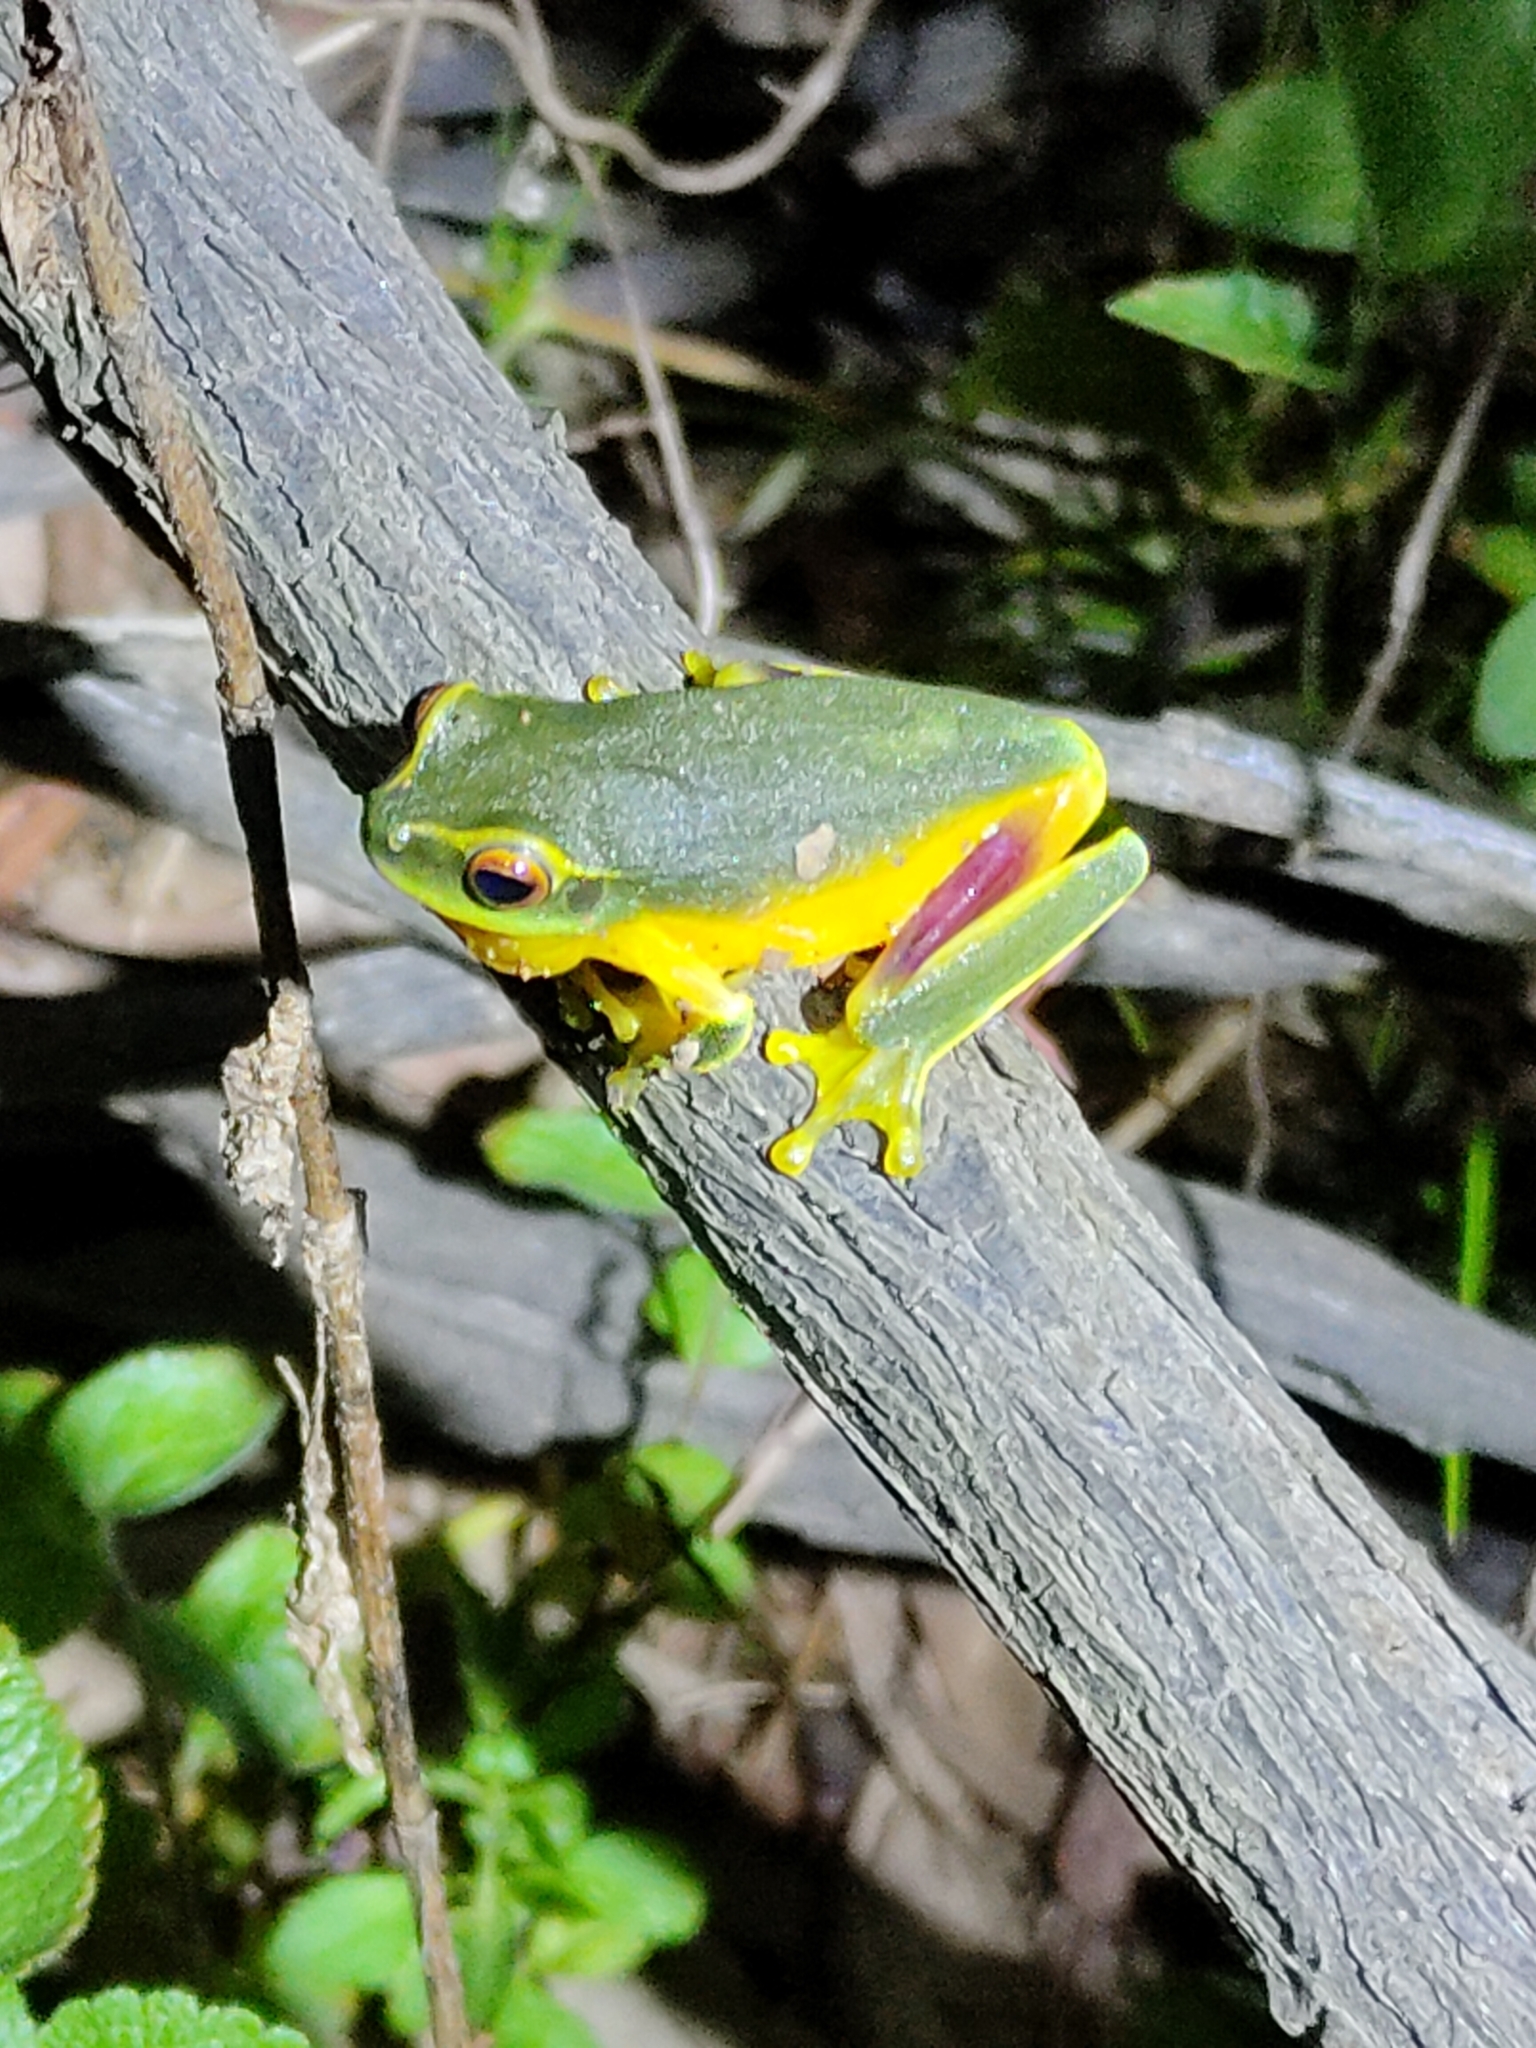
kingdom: Animalia
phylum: Chordata
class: Amphibia
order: Anura
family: Pelodryadidae
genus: Ranoidea
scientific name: Ranoidea gracilenta
